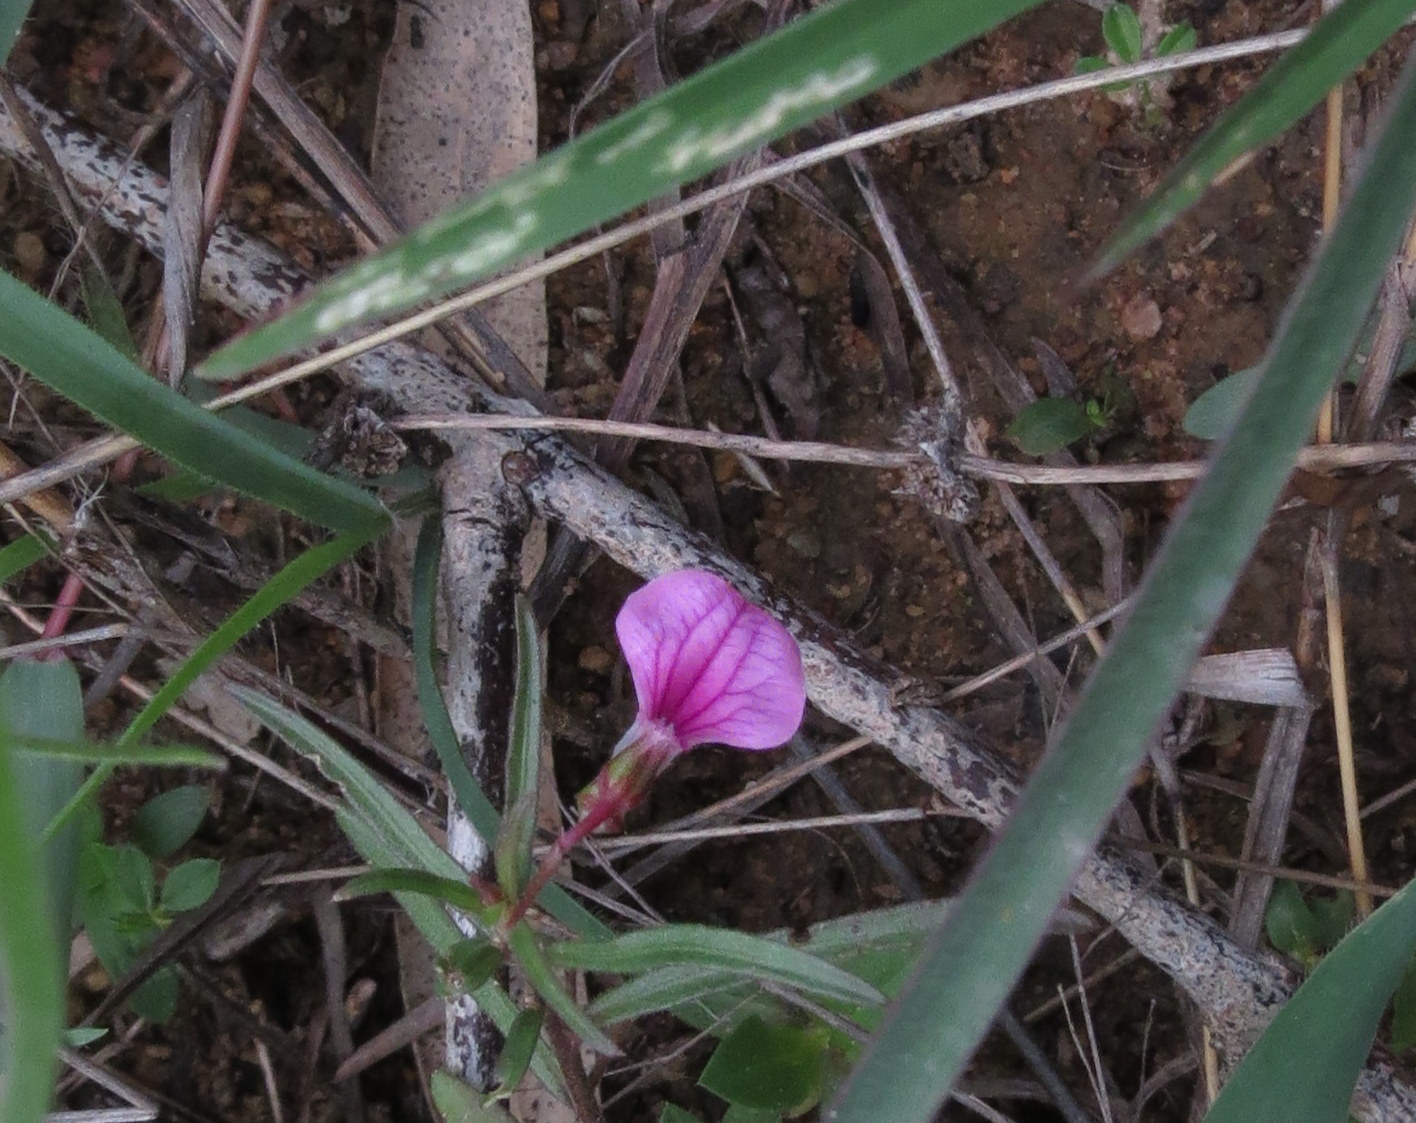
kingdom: Plantae
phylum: Tracheophyta
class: Magnoliopsida
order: Malpighiales
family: Violaceae
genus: Pigea
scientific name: Pigea enneasperma
